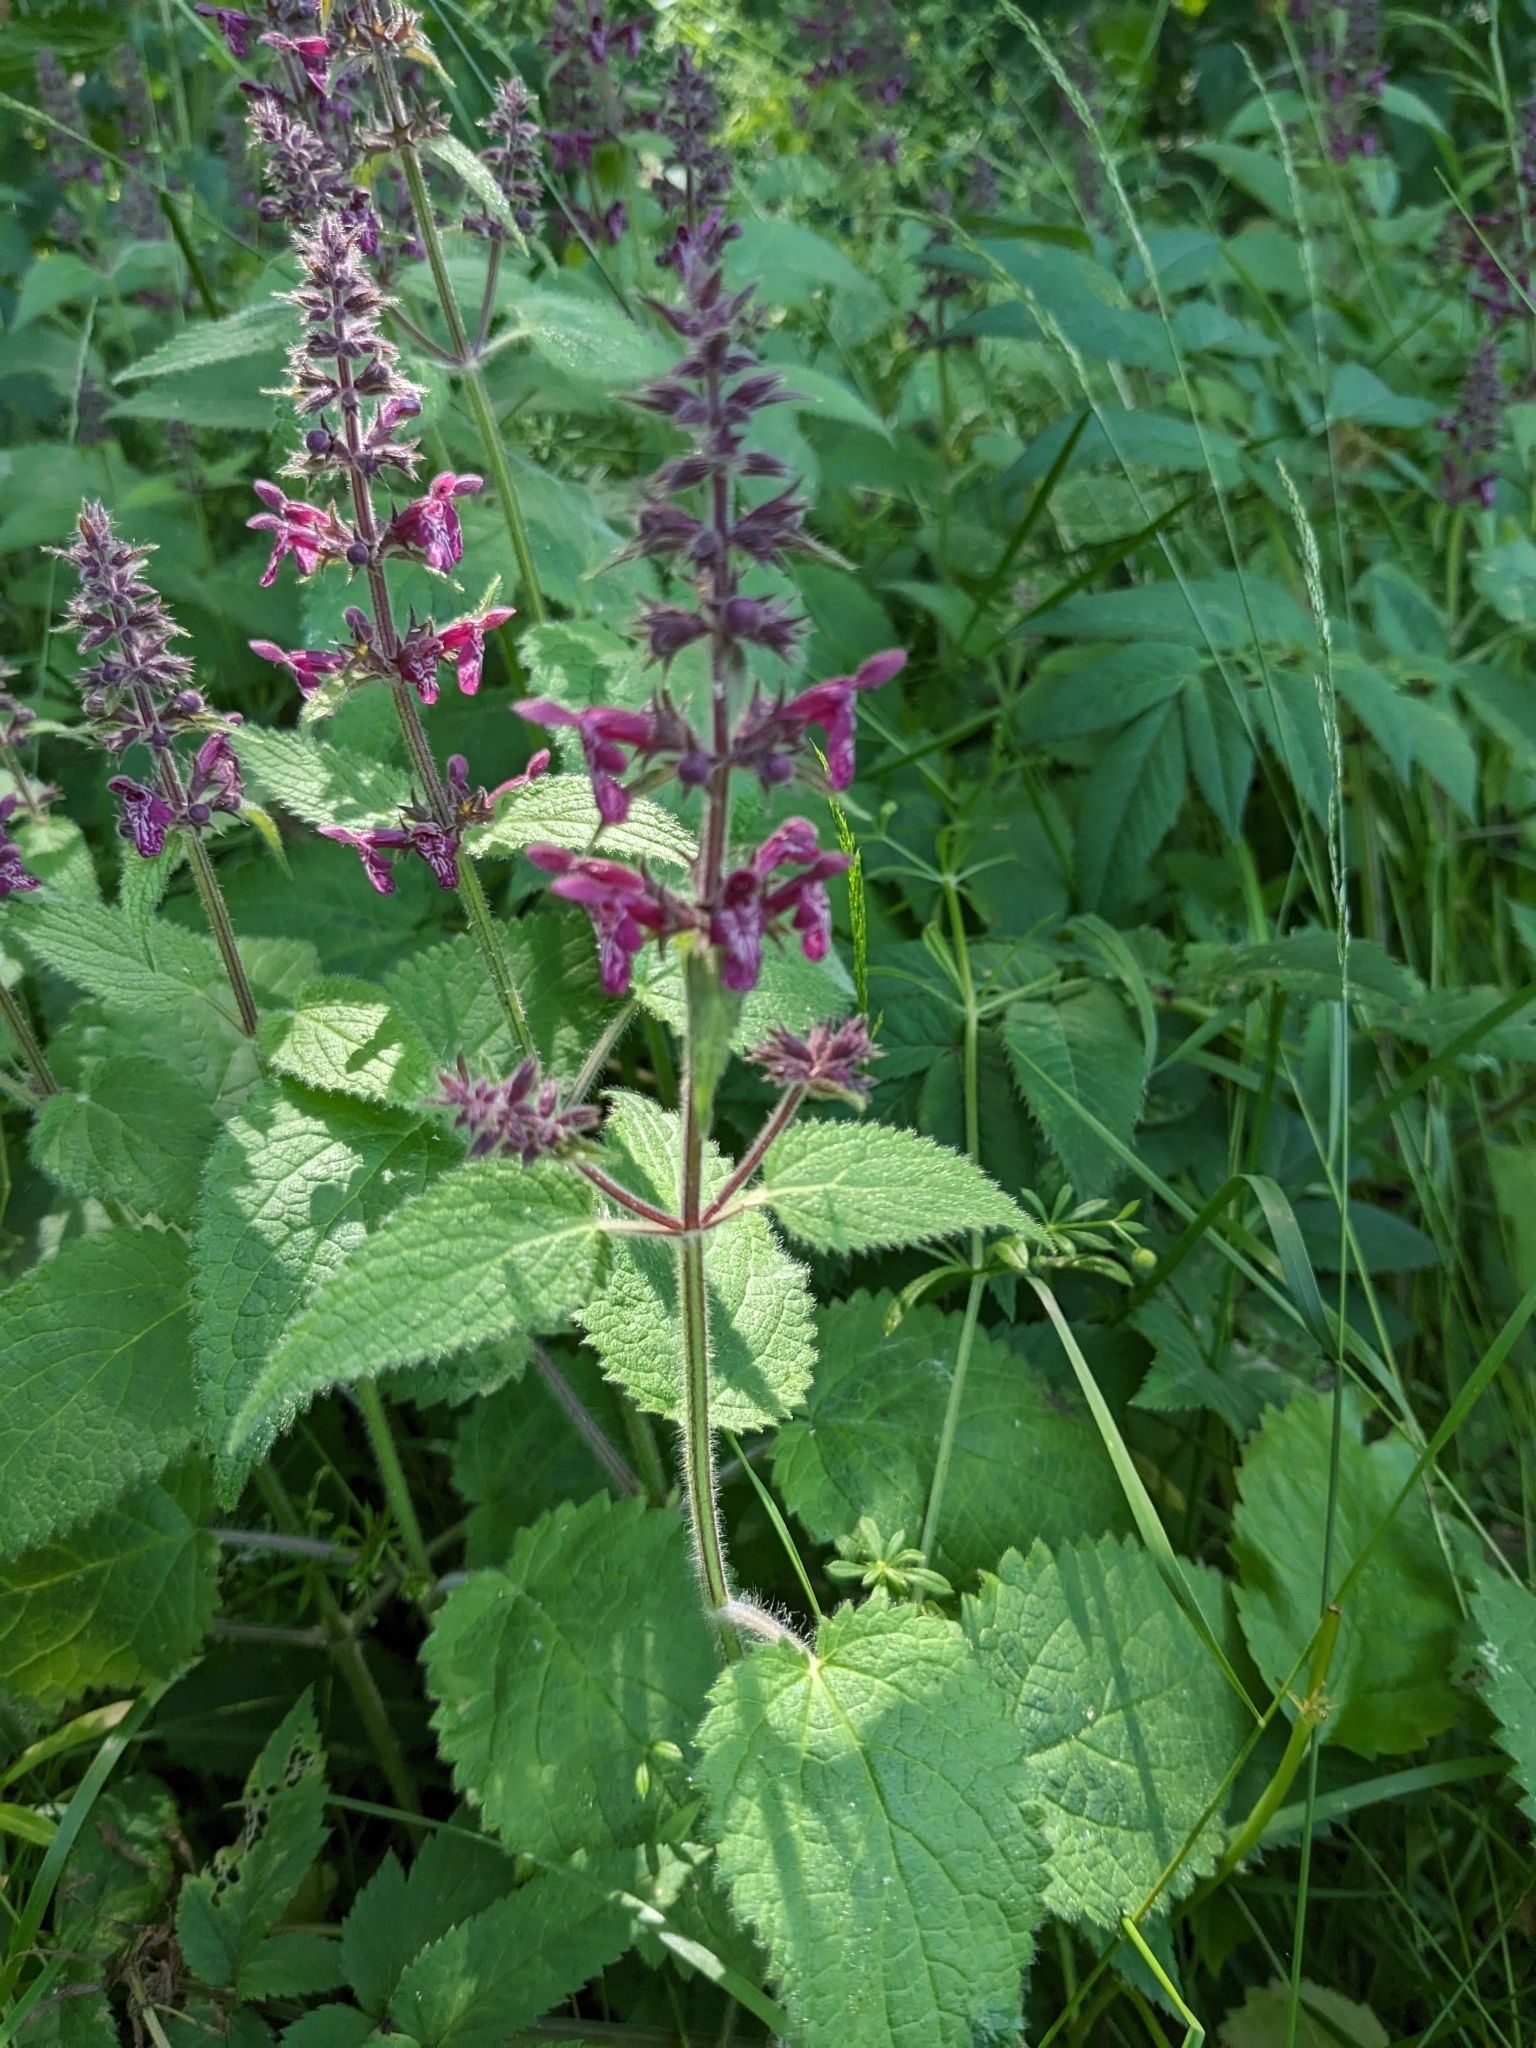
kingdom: Plantae
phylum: Tracheophyta
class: Magnoliopsida
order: Lamiales
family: Lamiaceae
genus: Stachys
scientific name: Stachys sylvatica
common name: Hedge woundwort
